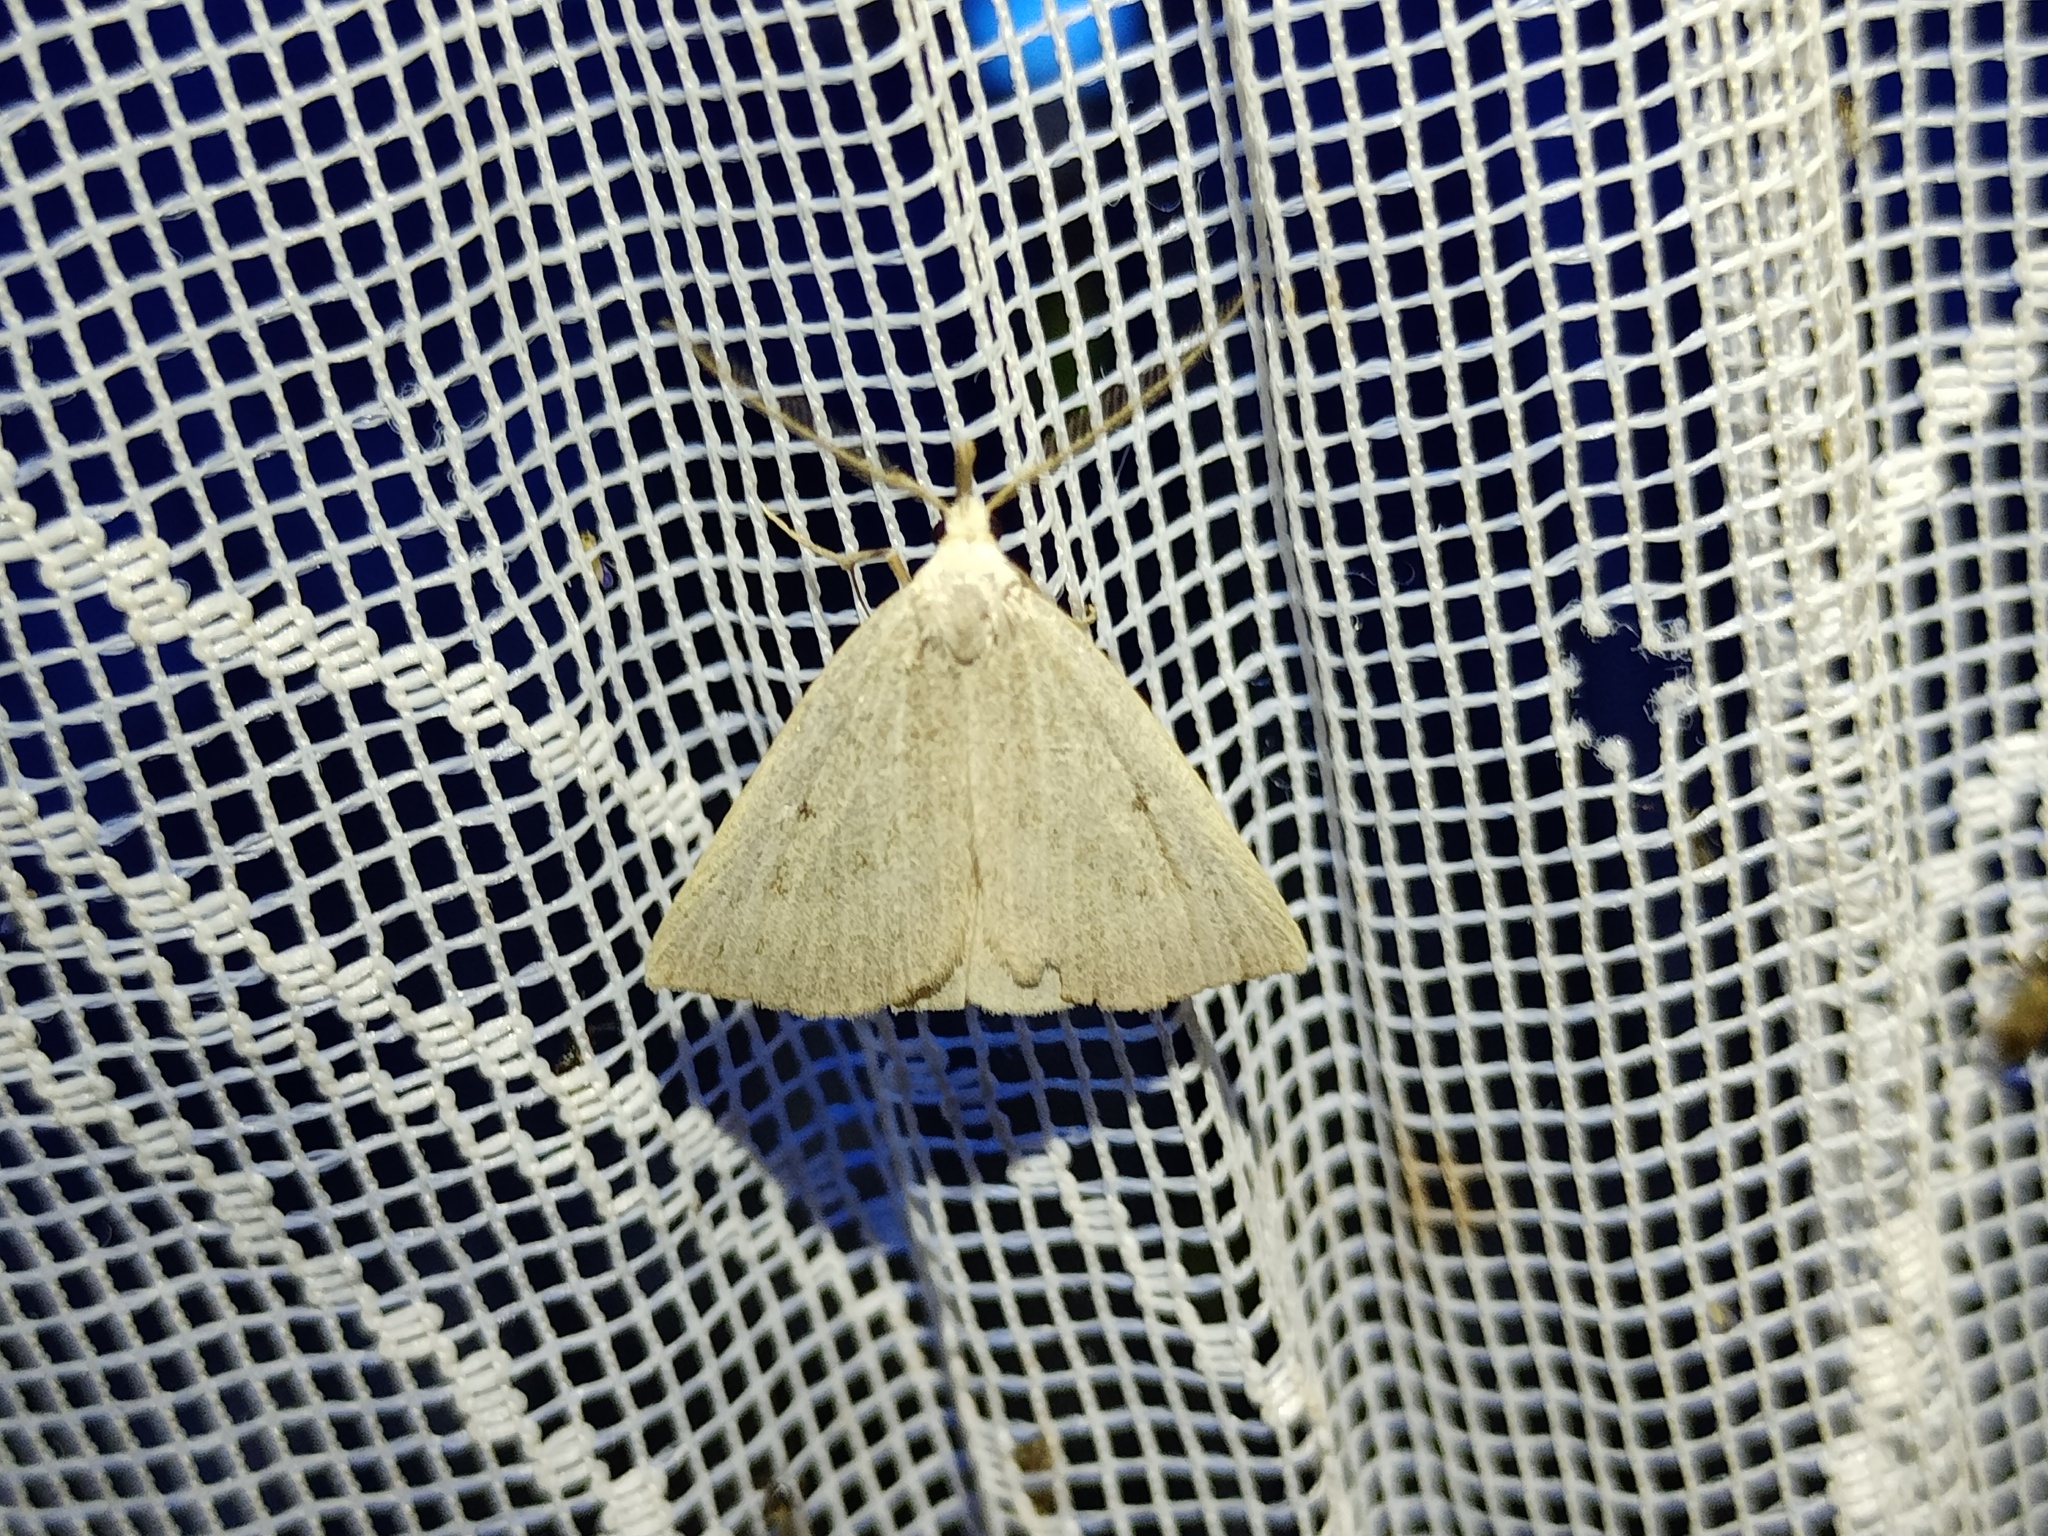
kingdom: Animalia
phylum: Arthropoda
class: Insecta
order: Lepidoptera
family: Erebidae
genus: Macrochilo
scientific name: Macrochilo cribrumalis
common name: Dotted fan-foot
